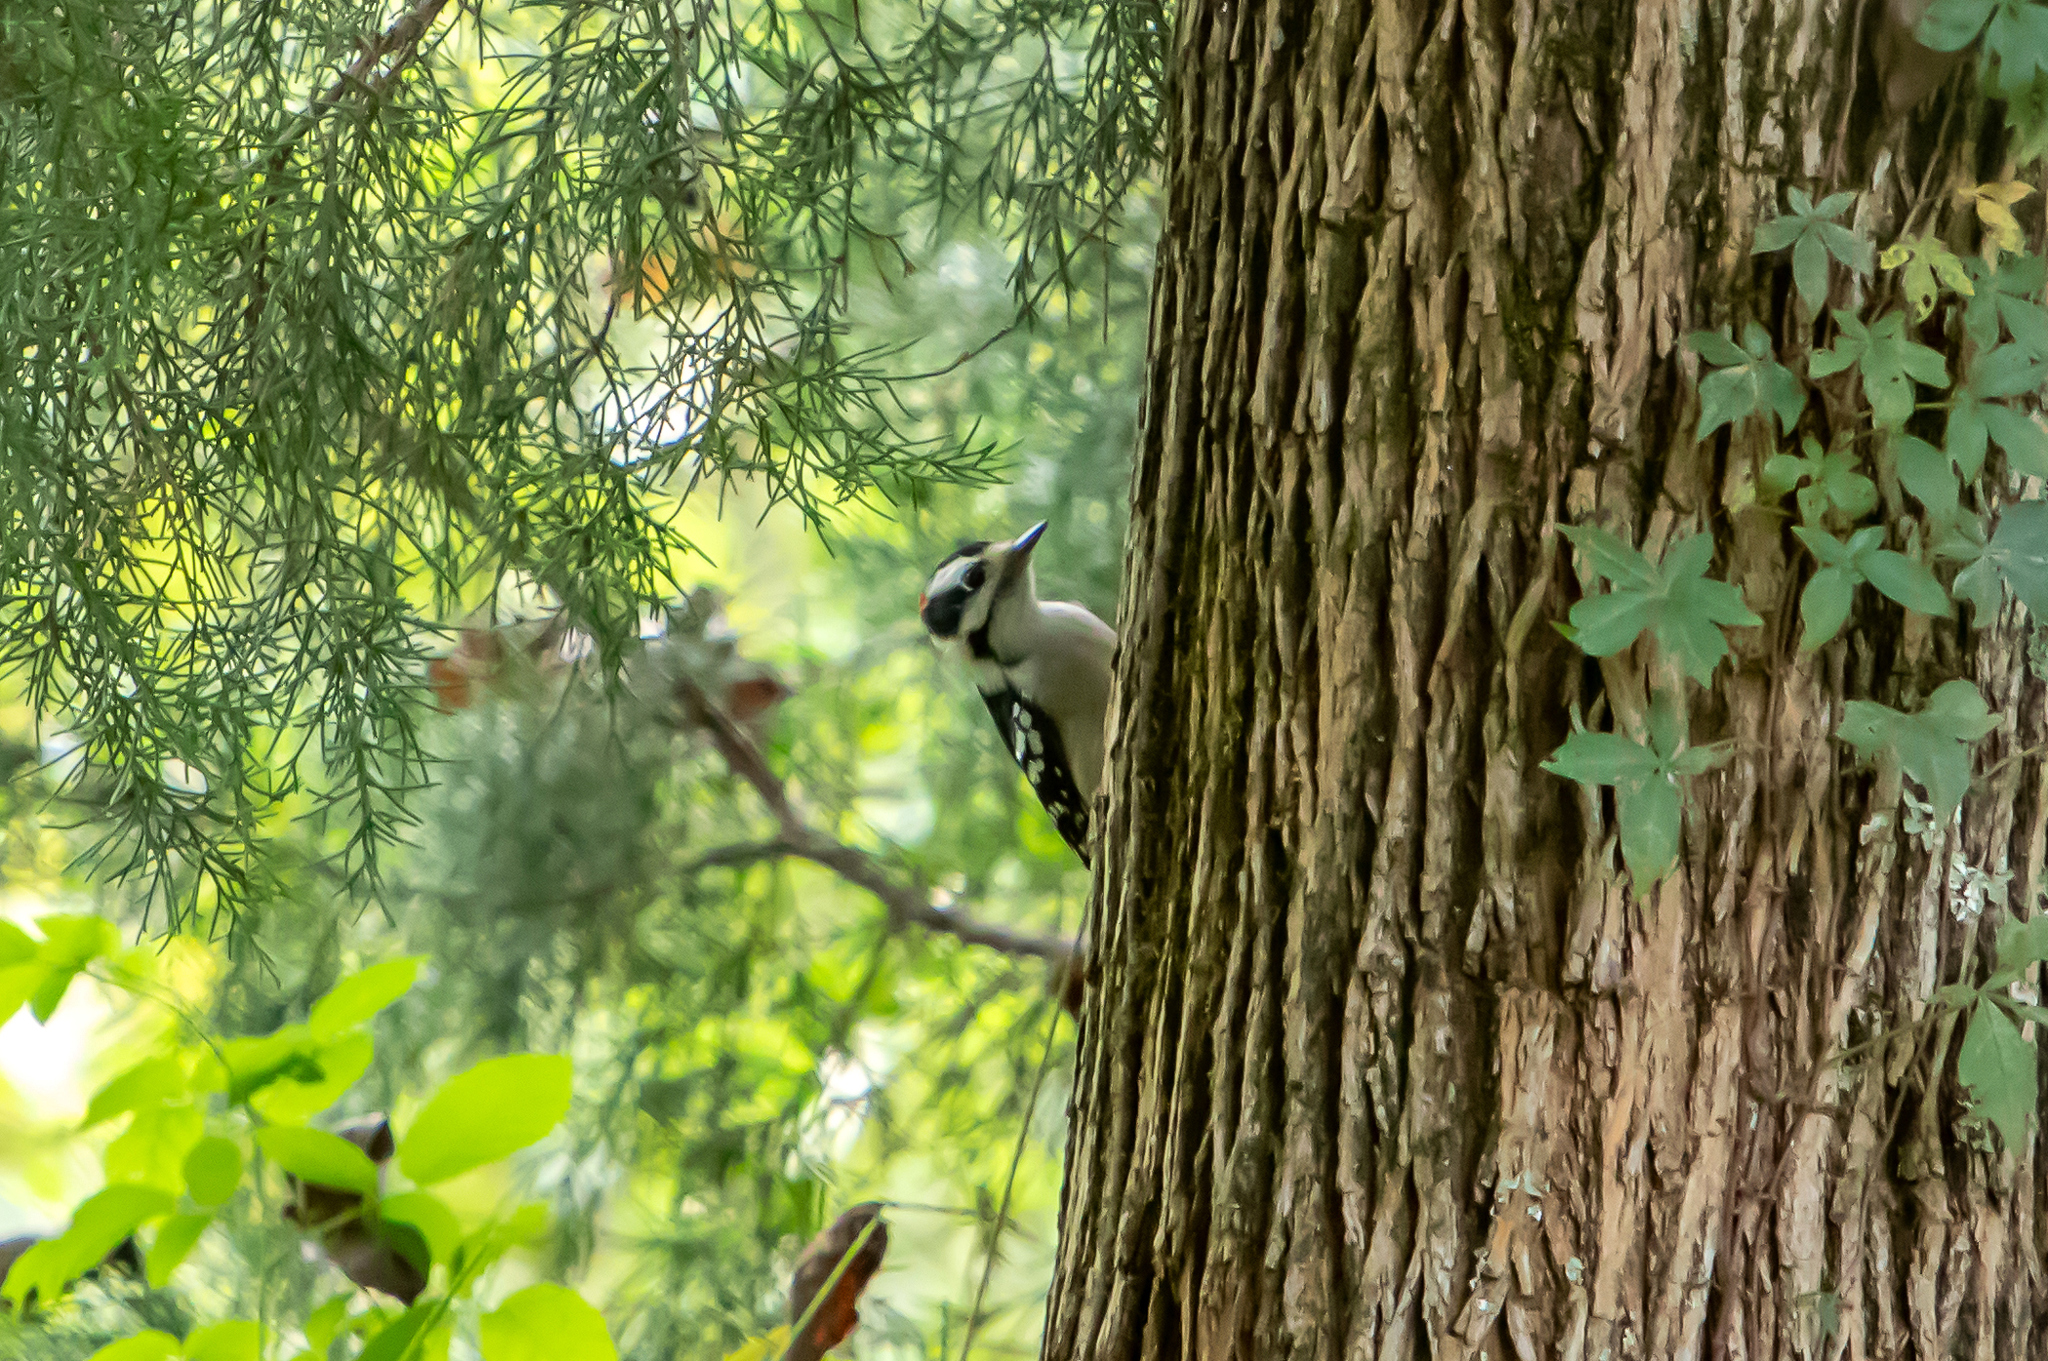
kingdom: Animalia
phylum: Chordata
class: Aves
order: Piciformes
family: Picidae
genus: Dryobates
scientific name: Dryobates pubescens
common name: Downy woodpecker
